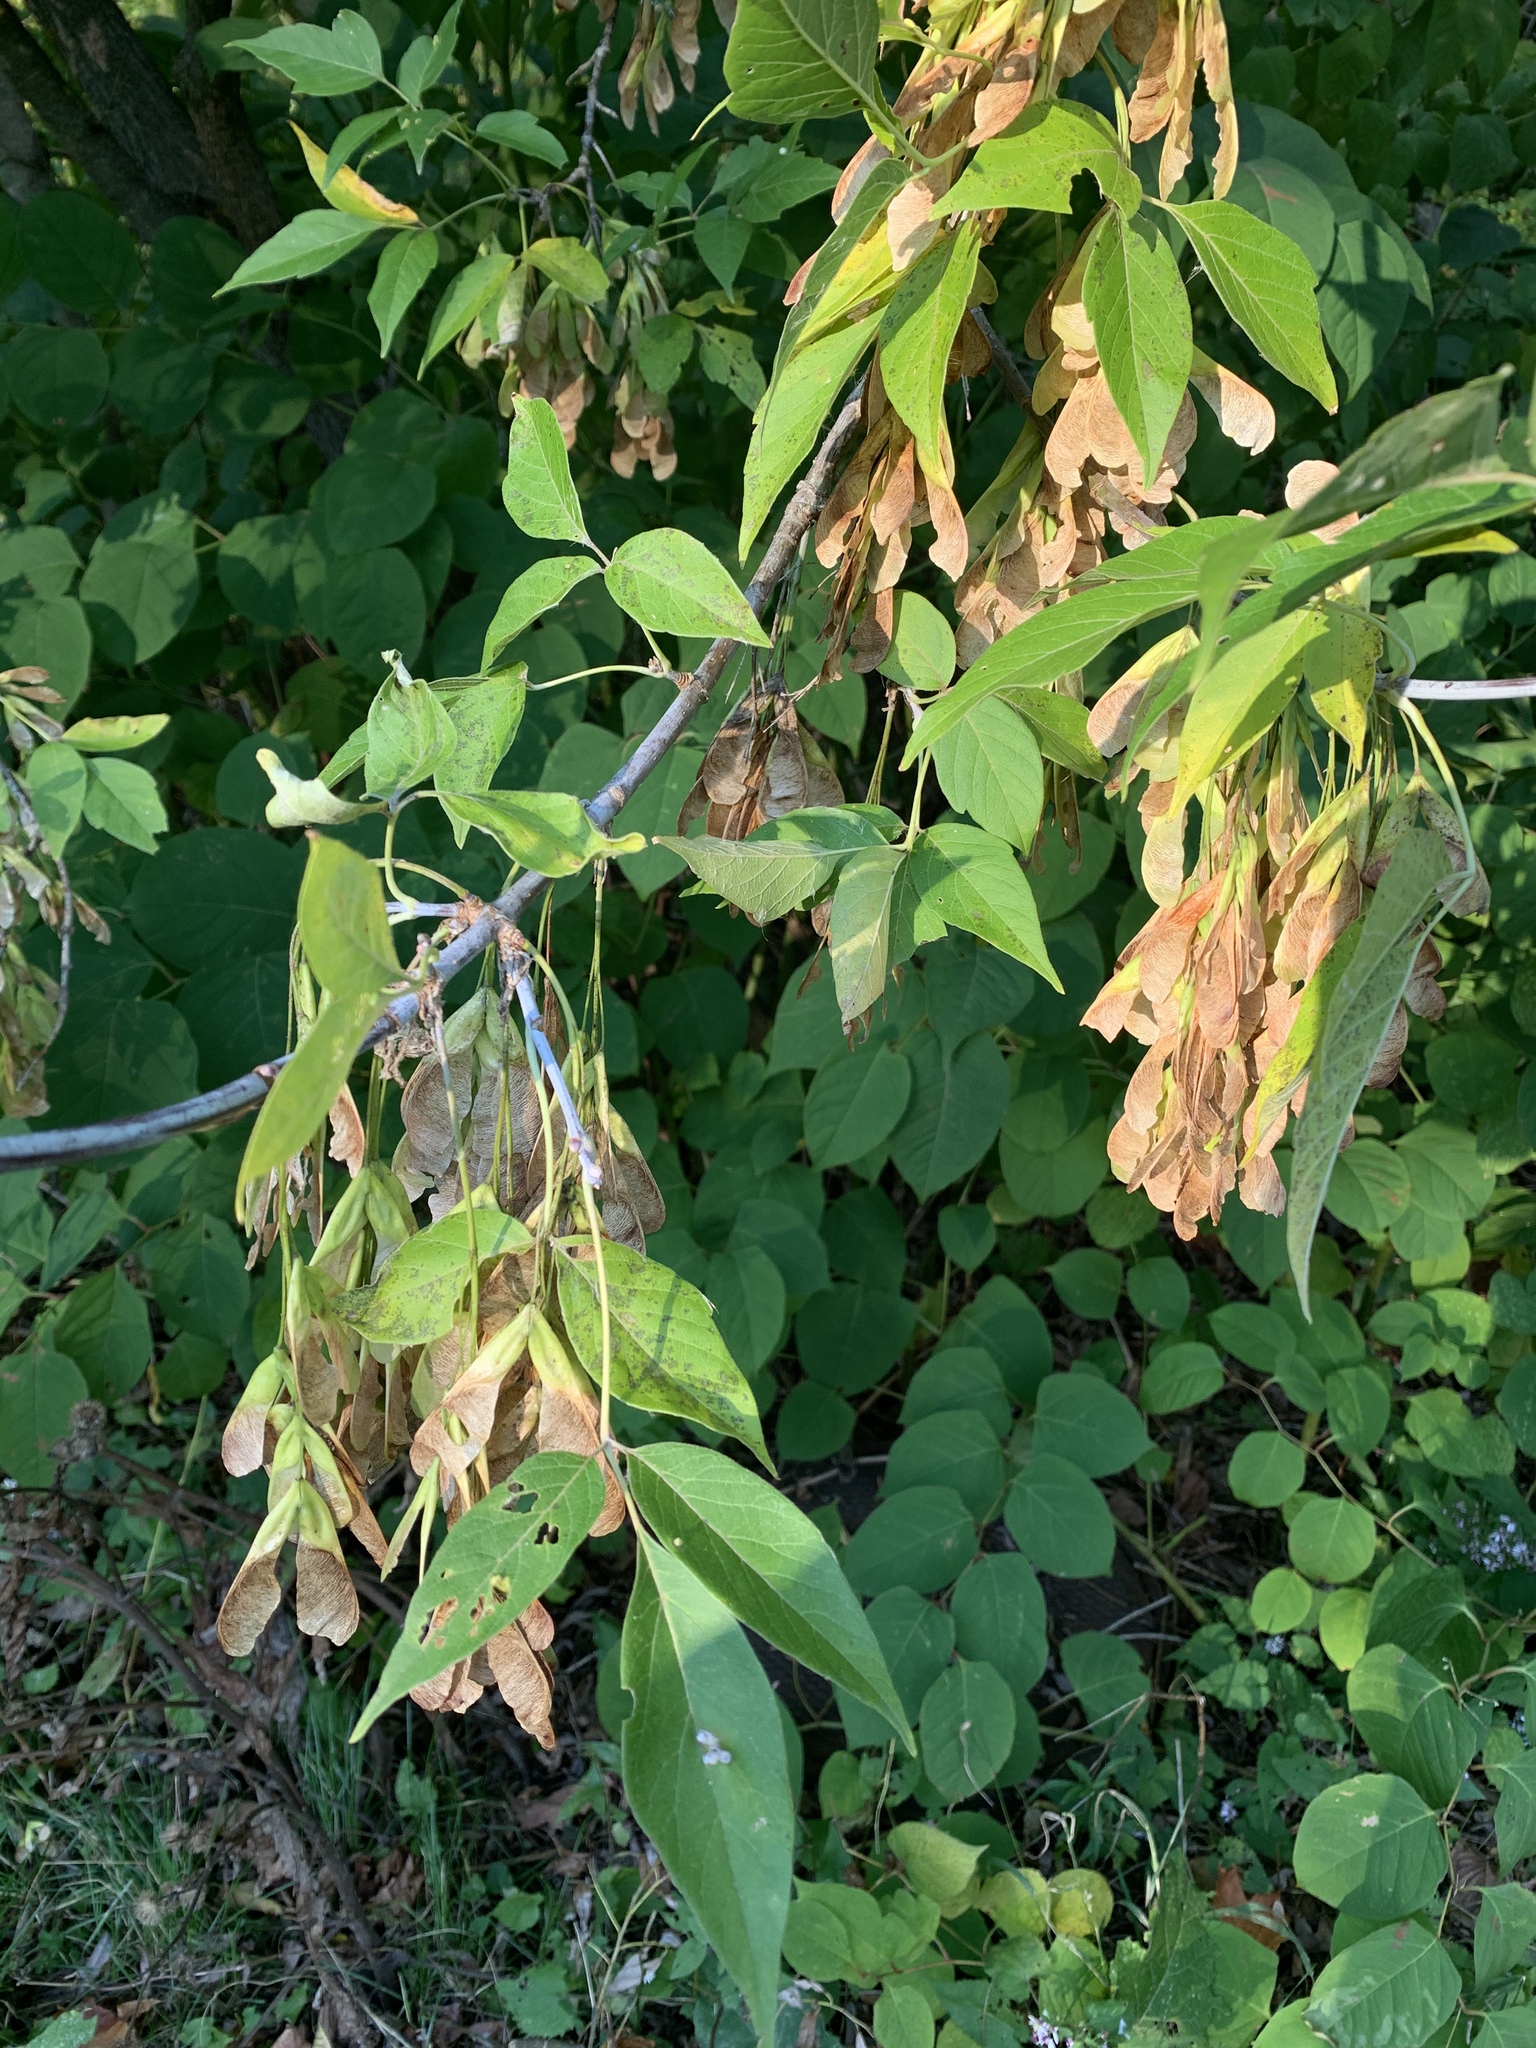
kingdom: Plantae
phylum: Tracheophyta
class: Magnoliopsida
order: Sapindales
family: Sapindaceae
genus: Acer
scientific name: Acer negundo
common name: Ashleaf maple
